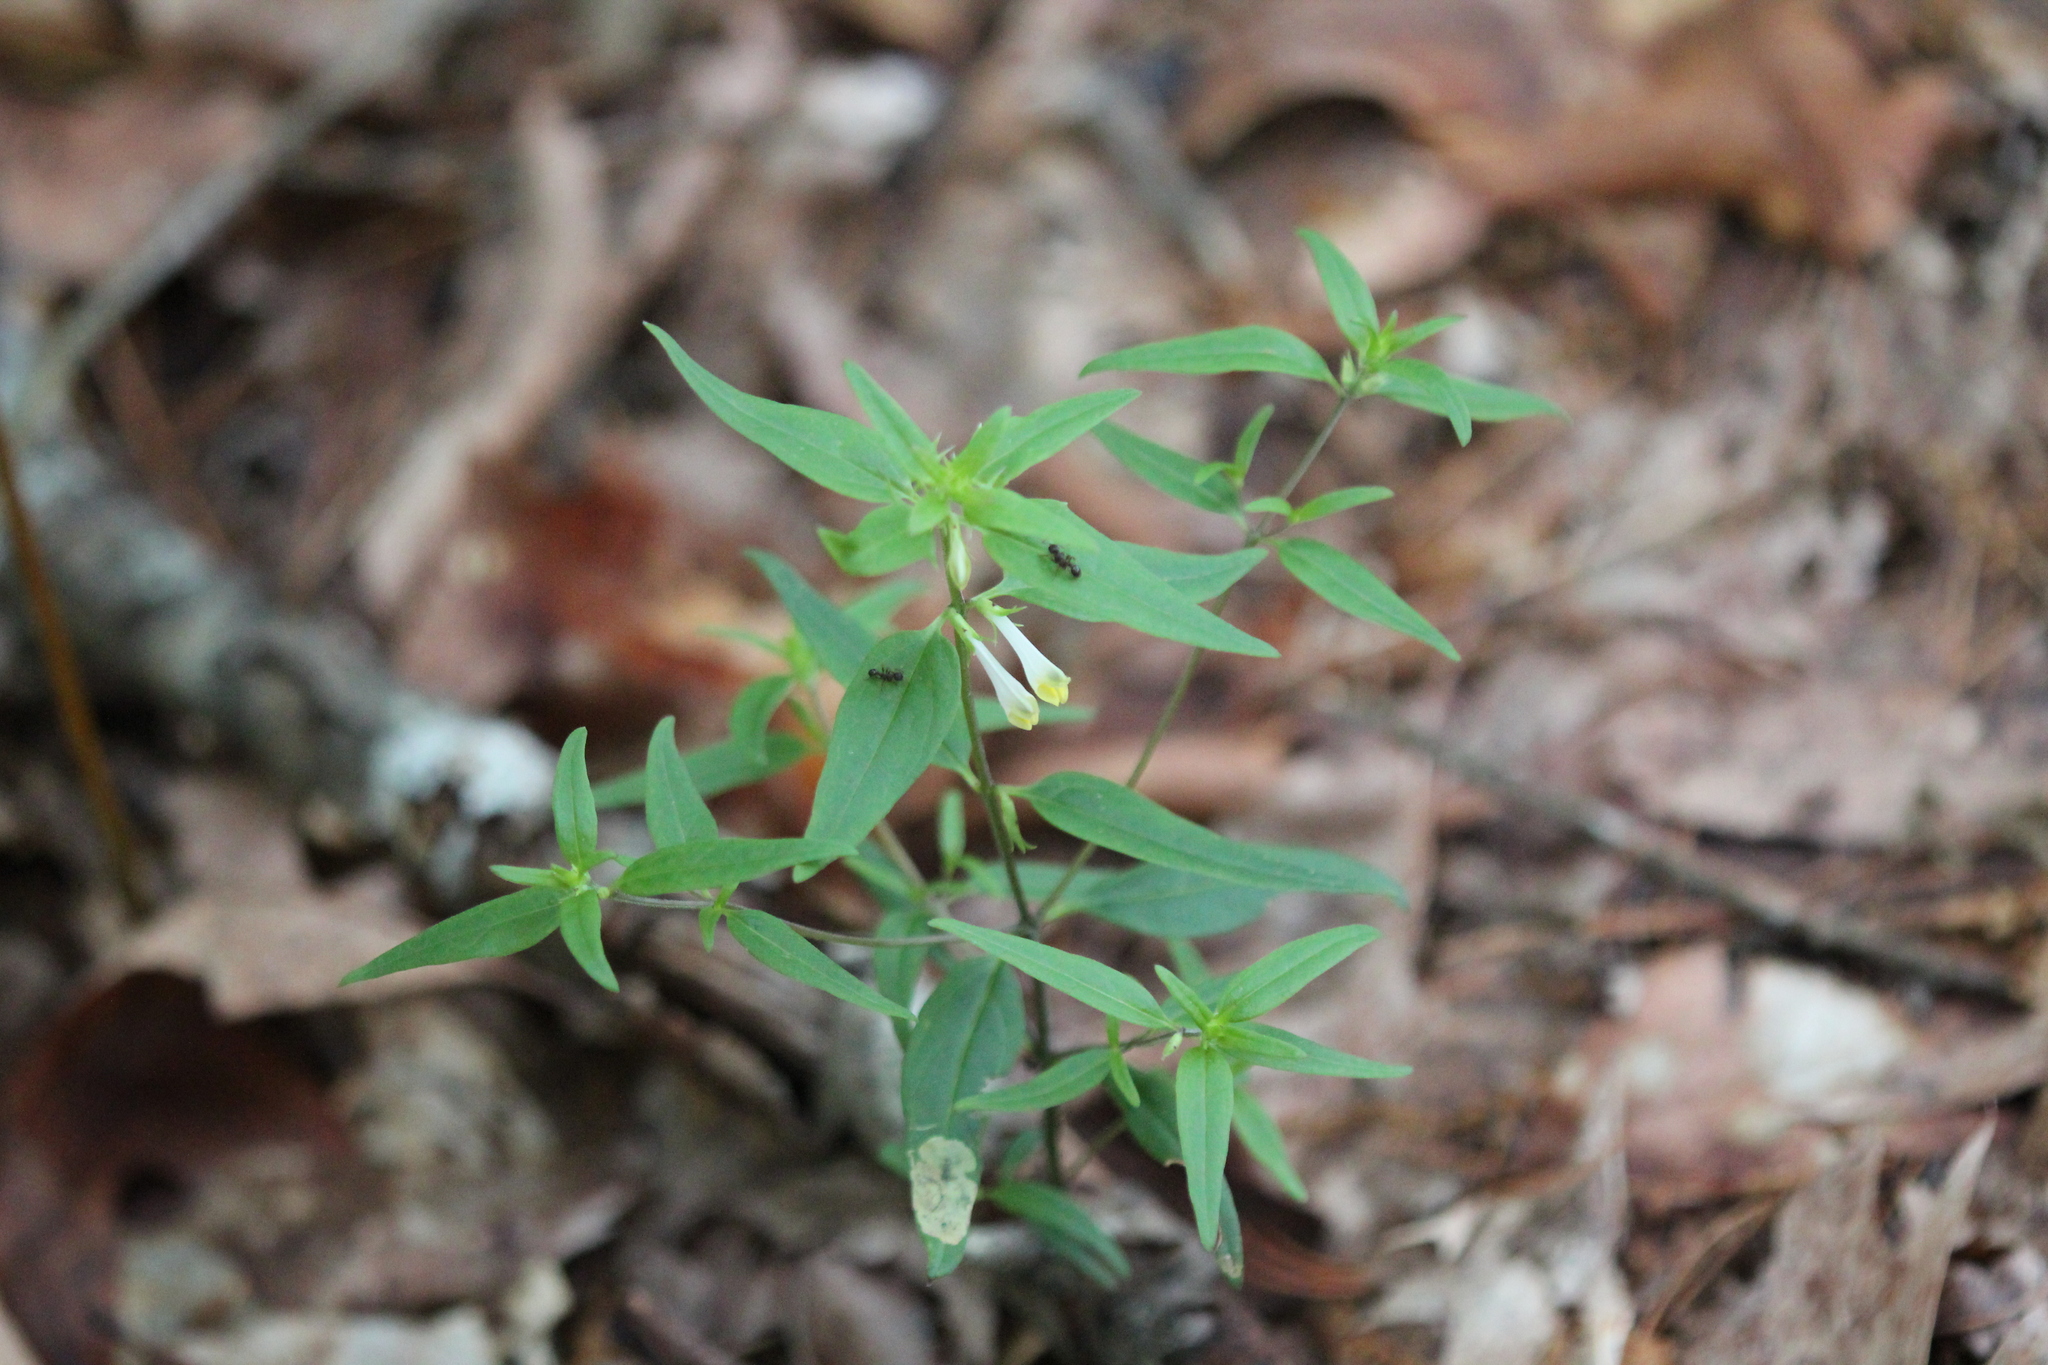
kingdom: Plantae
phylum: Tracheophyta
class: Magnoliopsida
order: Lamiales
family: Orobanchaceae
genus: Melampyrum
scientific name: Melampyrum lineare
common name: American cow-wheat
